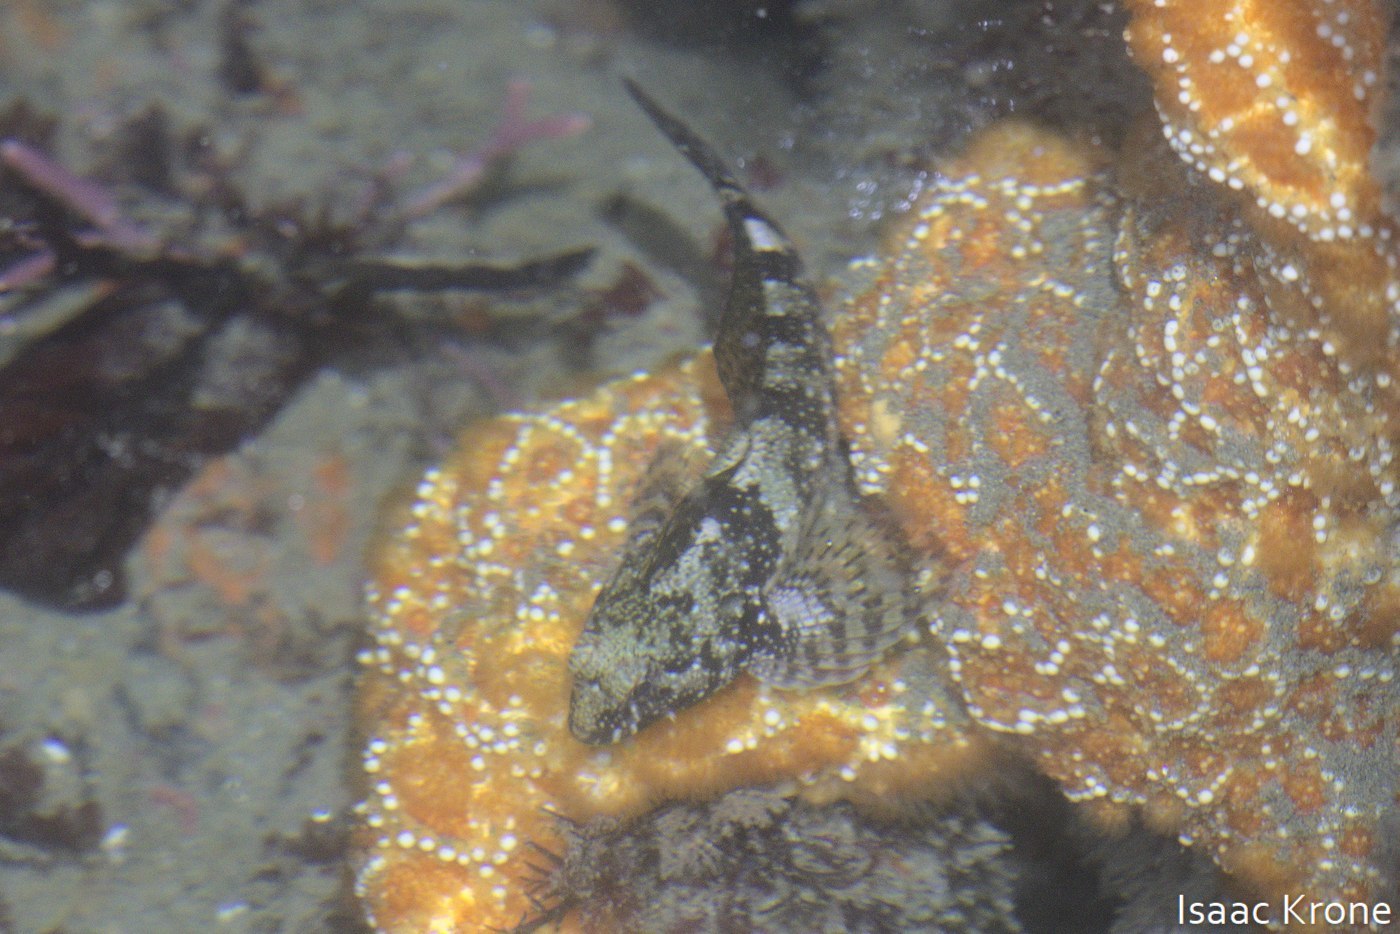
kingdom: Animalia
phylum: Chordata
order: Scorpaeniformes
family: Cottidae
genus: Oligocottus
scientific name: Oligocottus maculosus
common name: Tidepool sculpin
